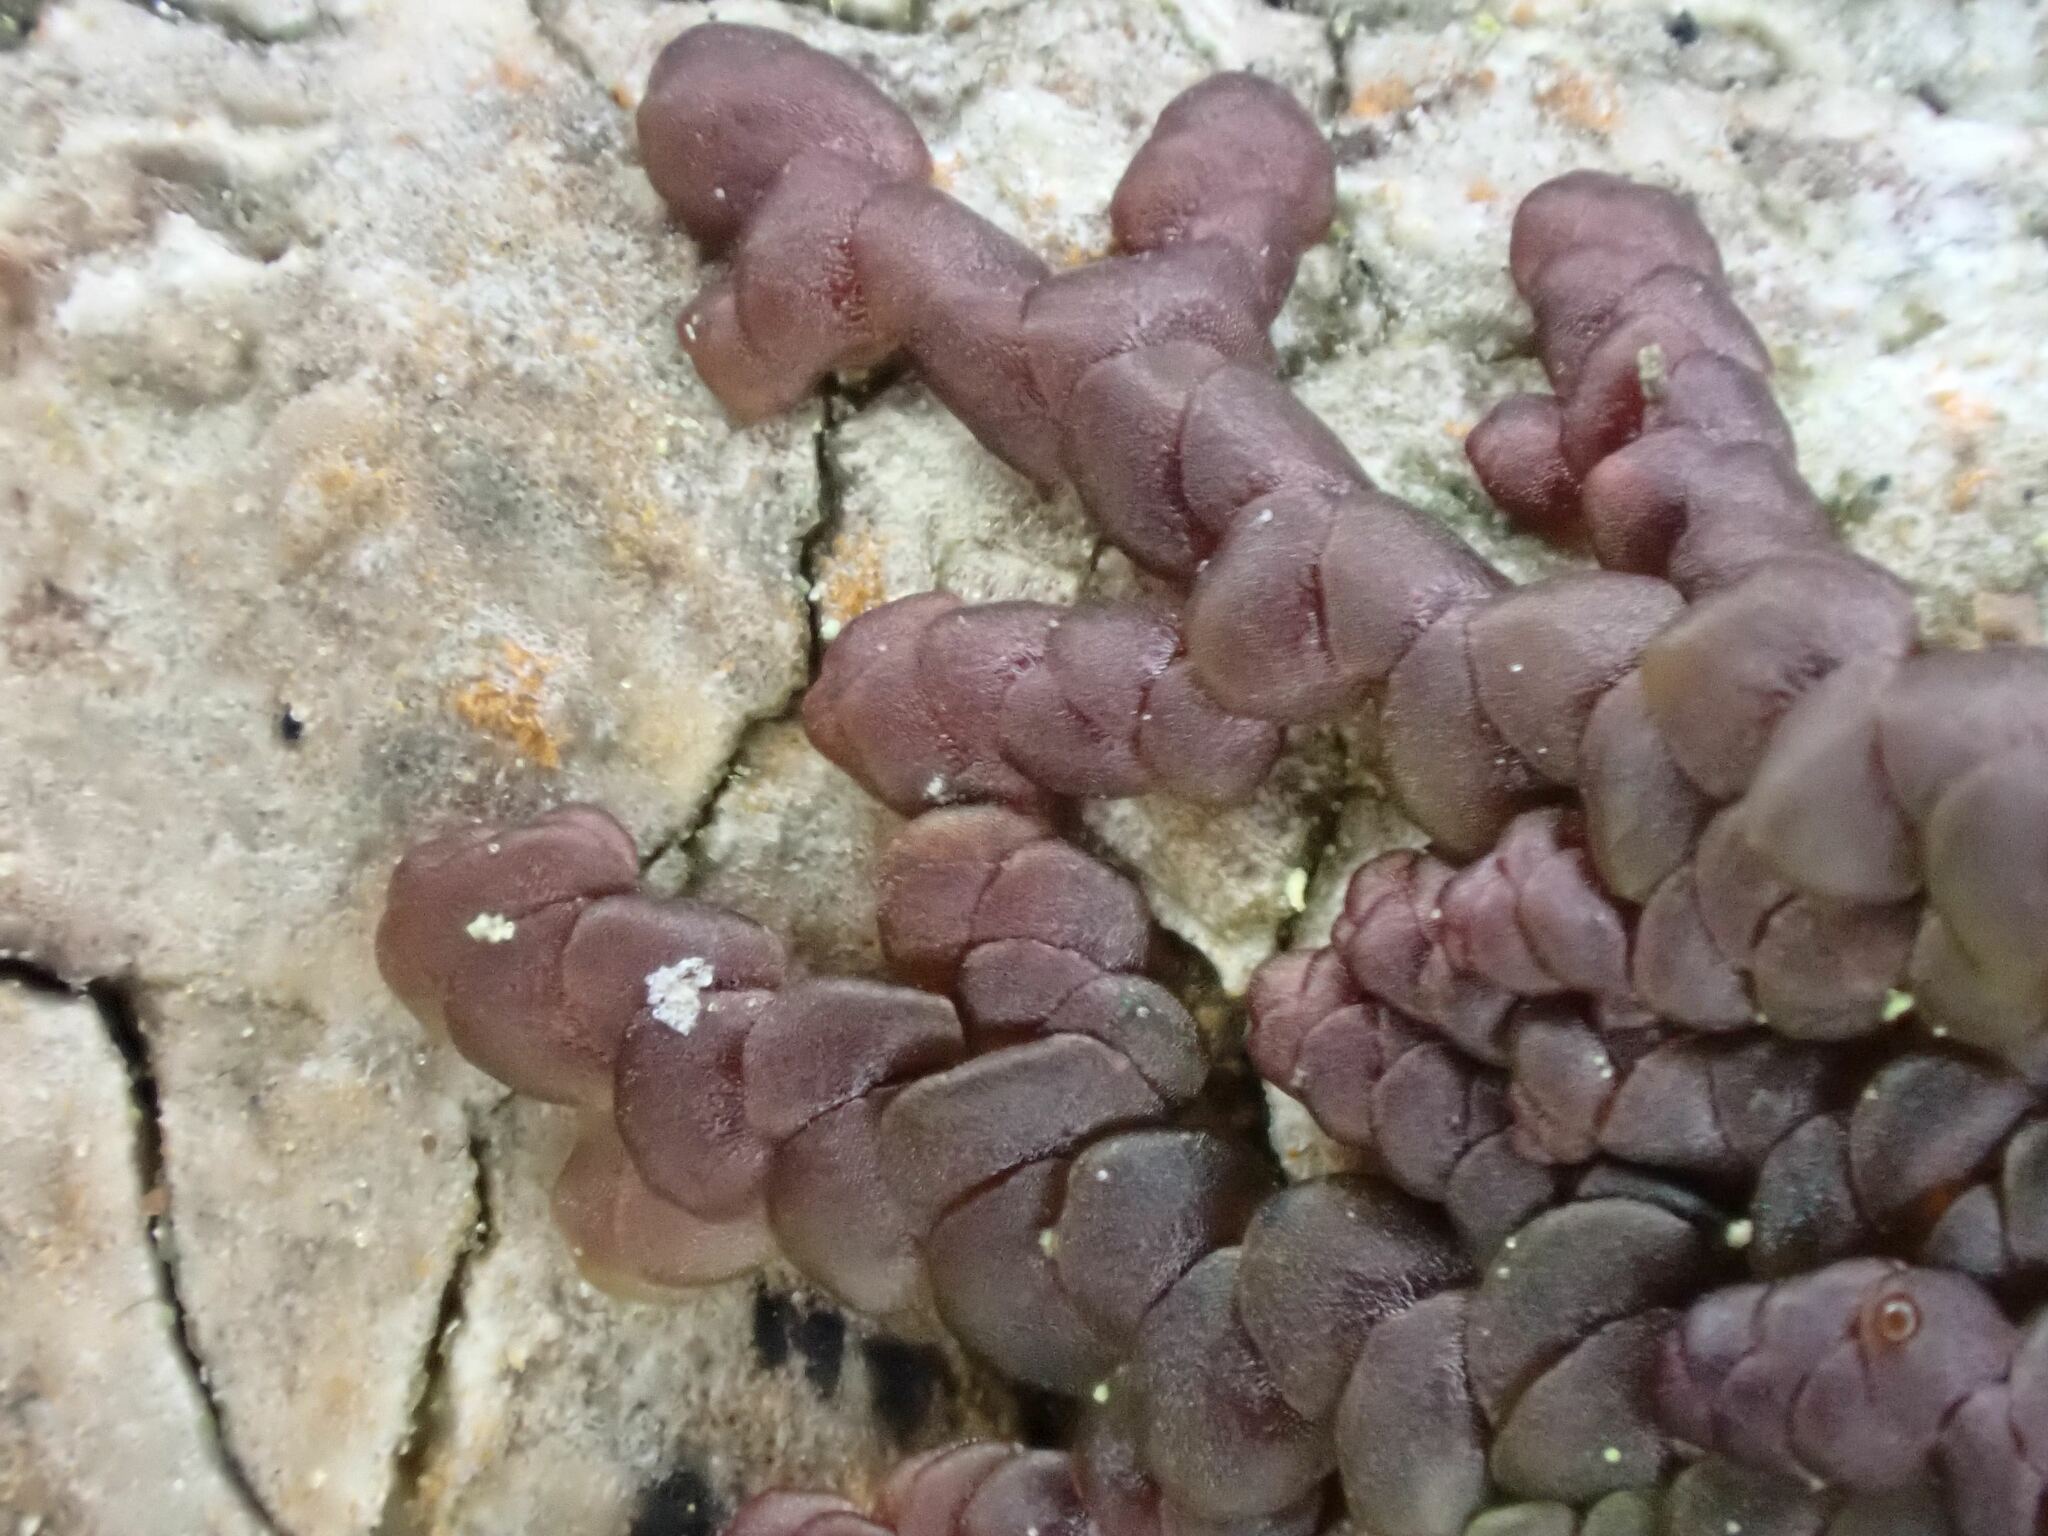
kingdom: Plantae
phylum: Marchantiophyta
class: Jungermanniopsida
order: Porellales
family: Frullaniaceae
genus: Frullania
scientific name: Frullania dilatata
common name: Dilated scalewort
